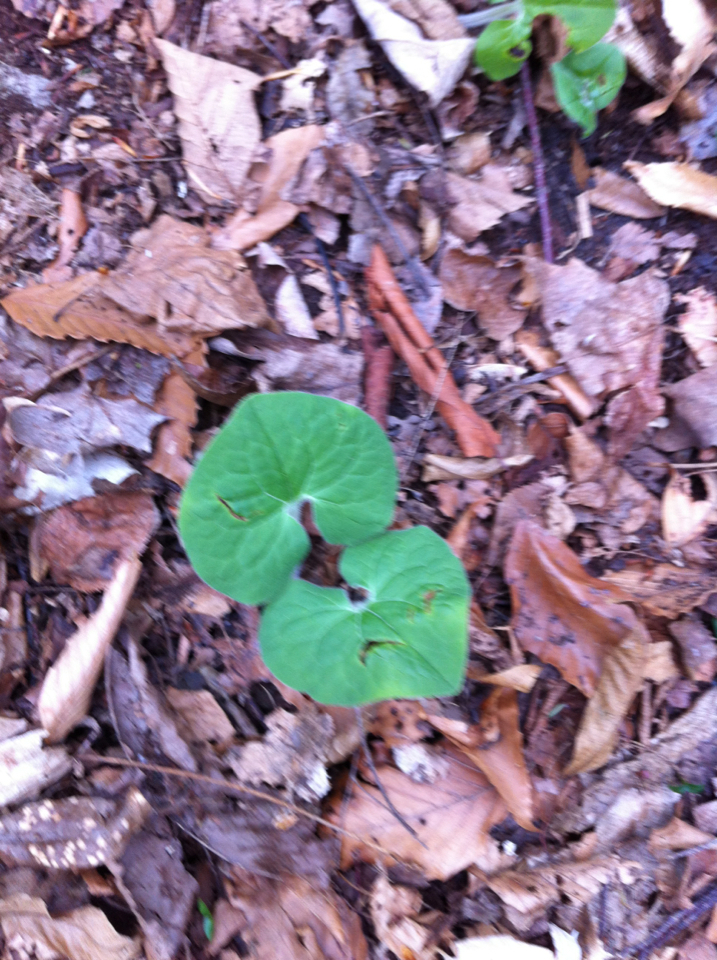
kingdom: Plantae
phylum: Tracheophyta
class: Magnoliopsida
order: Piperales
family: Aristolochiaceae
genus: Asarum
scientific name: Asarum canadense
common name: Wild ginger
